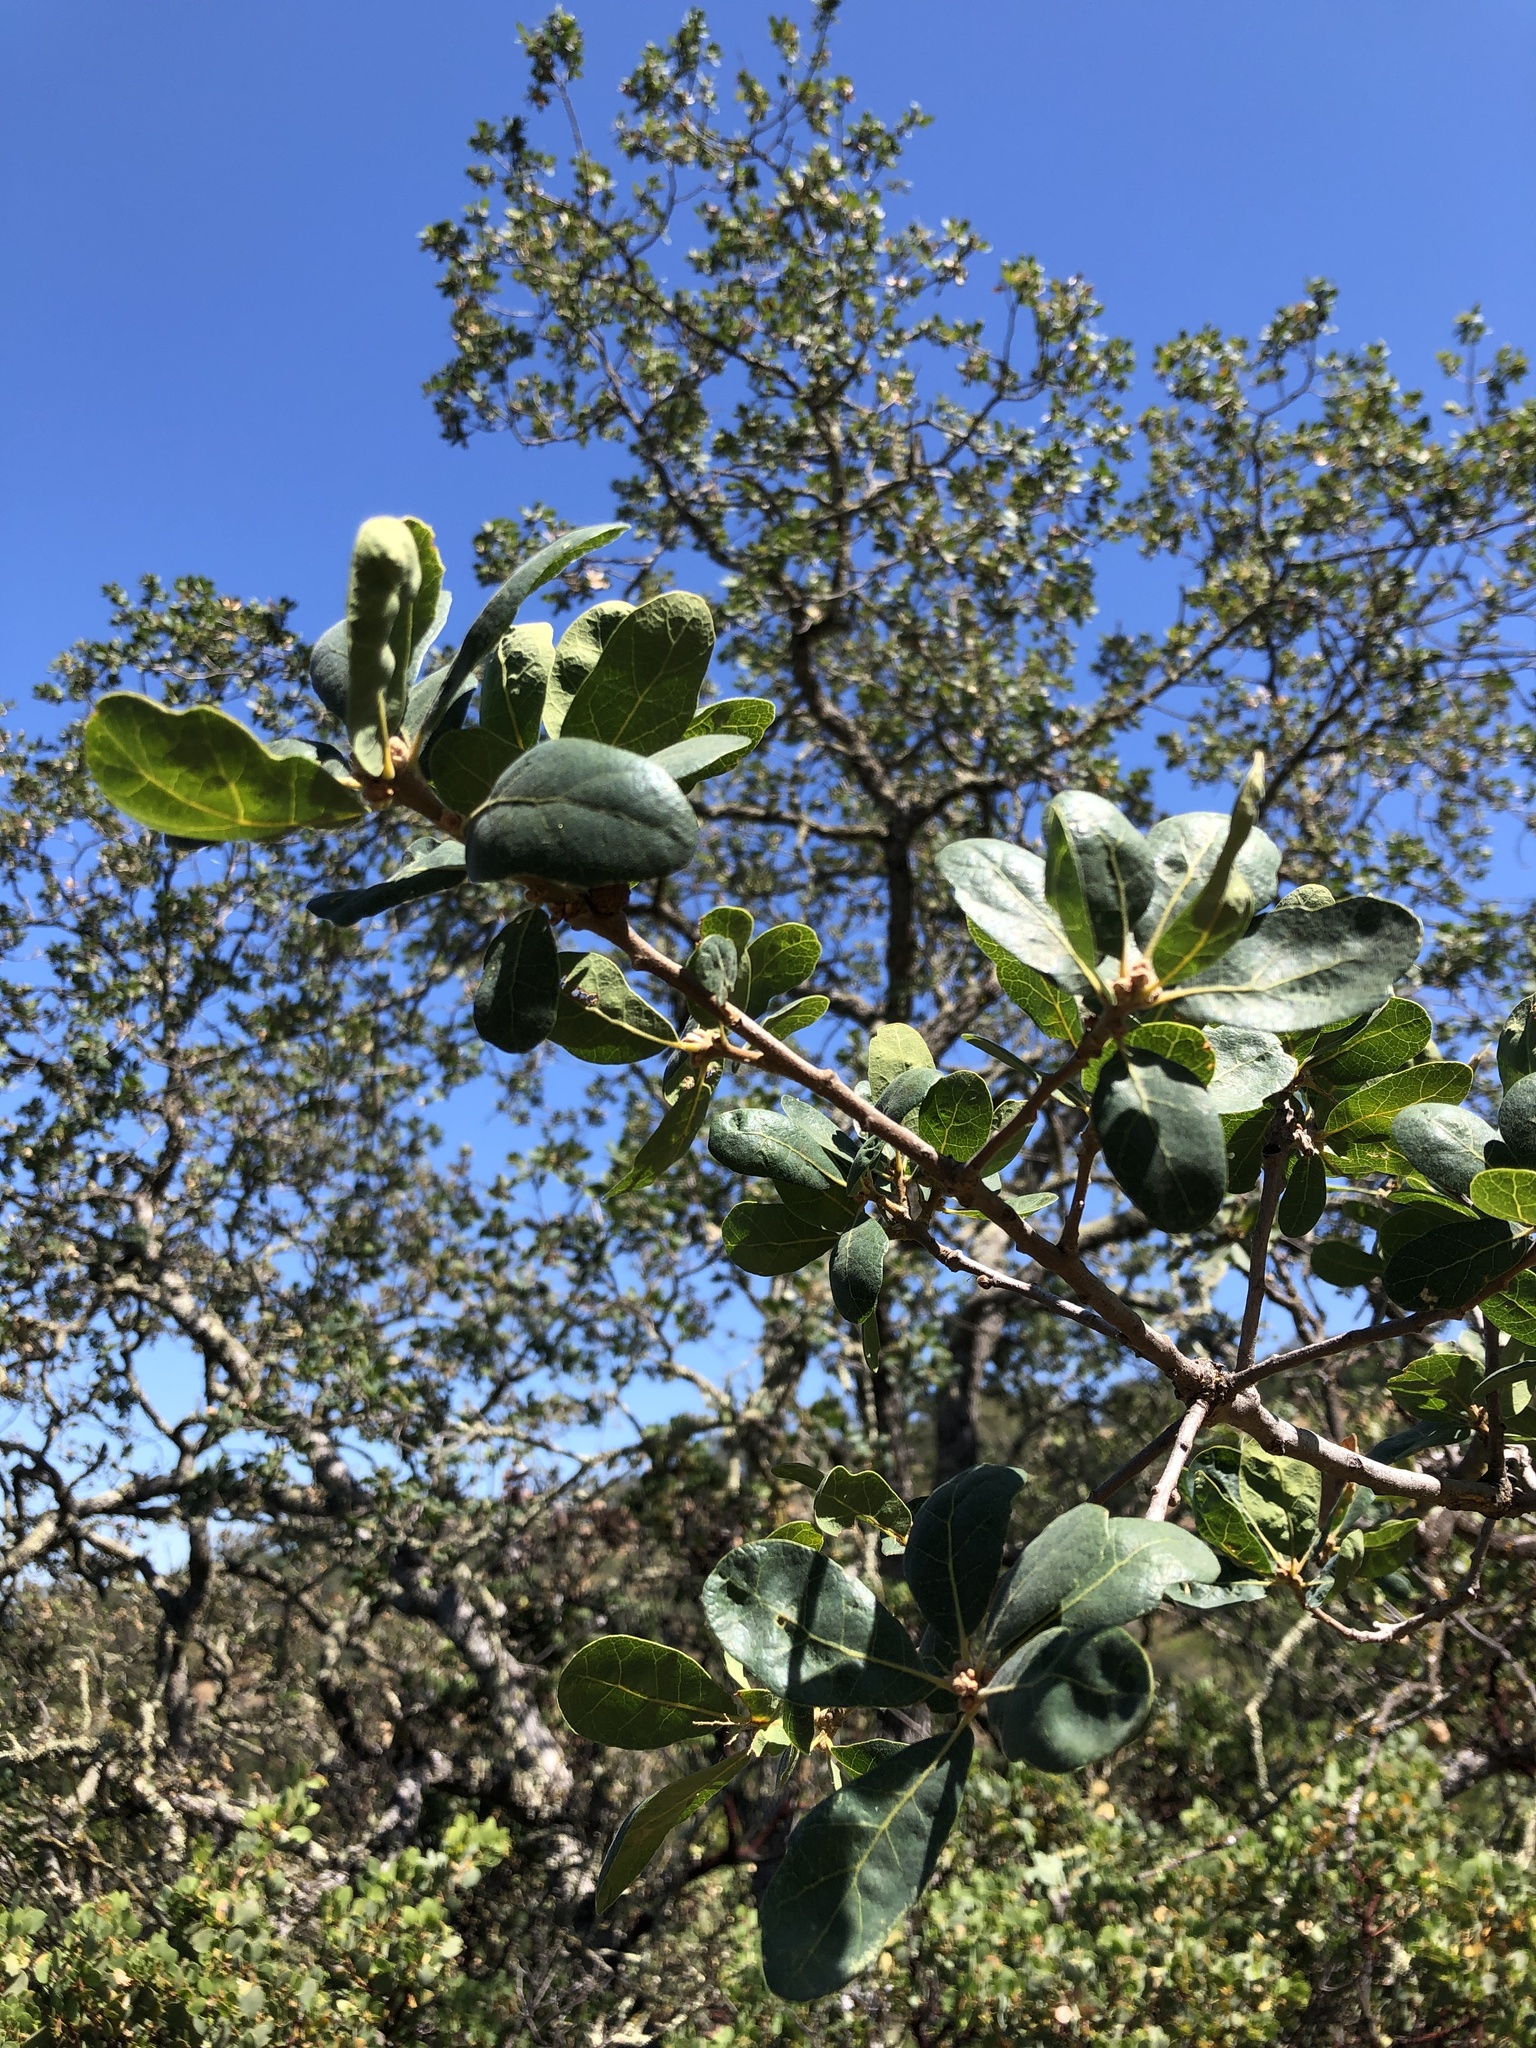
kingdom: Plantae
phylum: Tracheophyta
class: Magnoliopsida
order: Fagales
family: Fagaceae
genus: Quercus
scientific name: Quercus douglasii
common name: Blue oak
